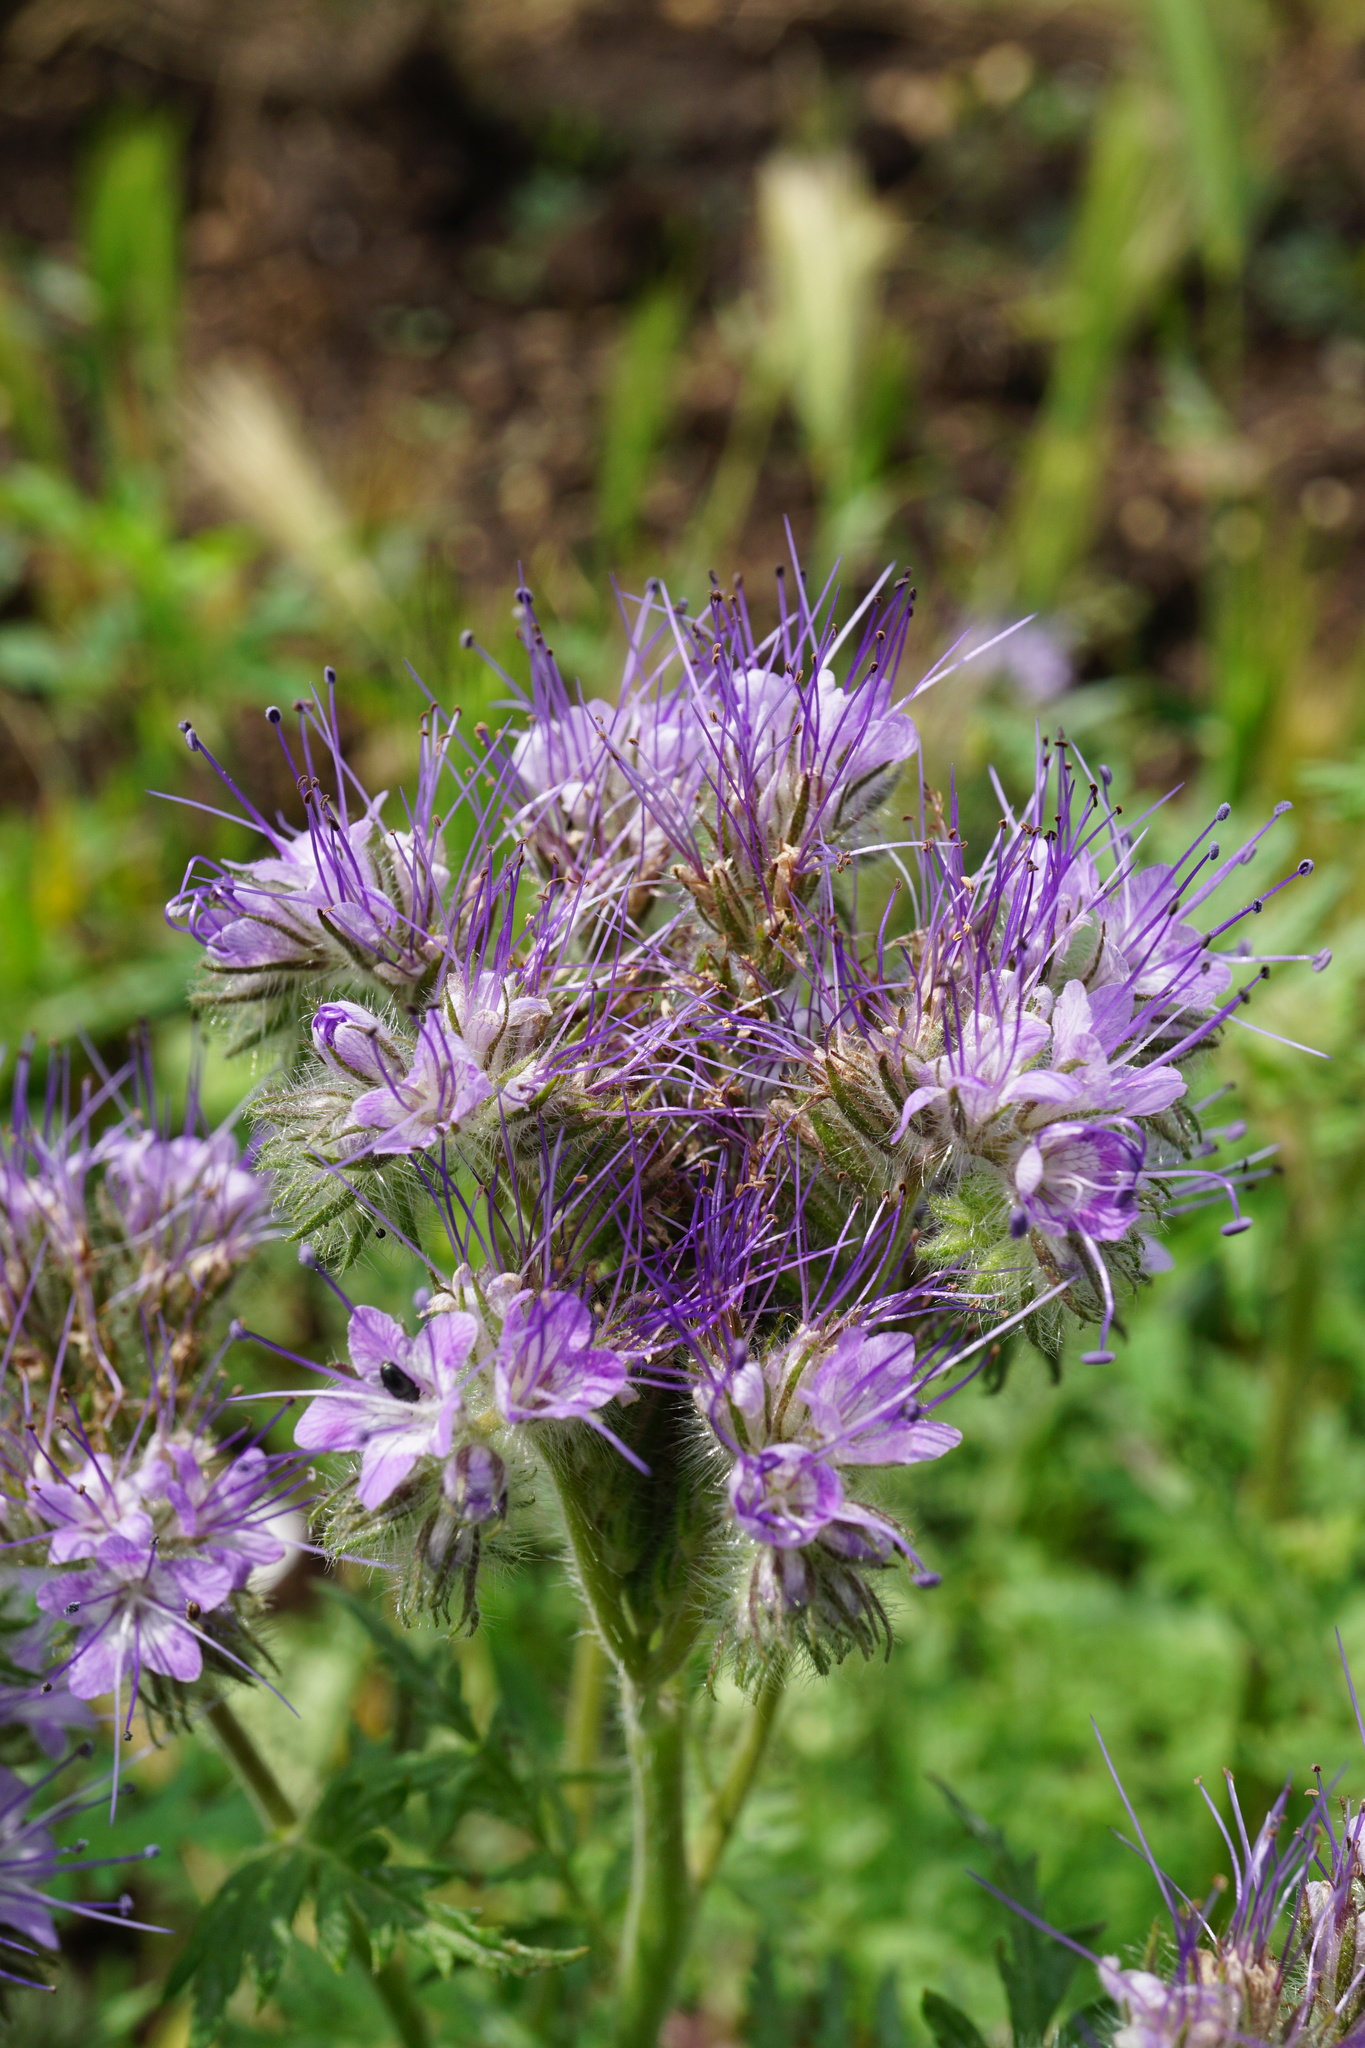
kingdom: Plantae
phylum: Tracheophyta
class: Magnoliopsida
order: Boraginales
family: Hydrophyllaceae
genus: Phacelia
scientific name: Phacelia tanacetifolia
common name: Phacelia
